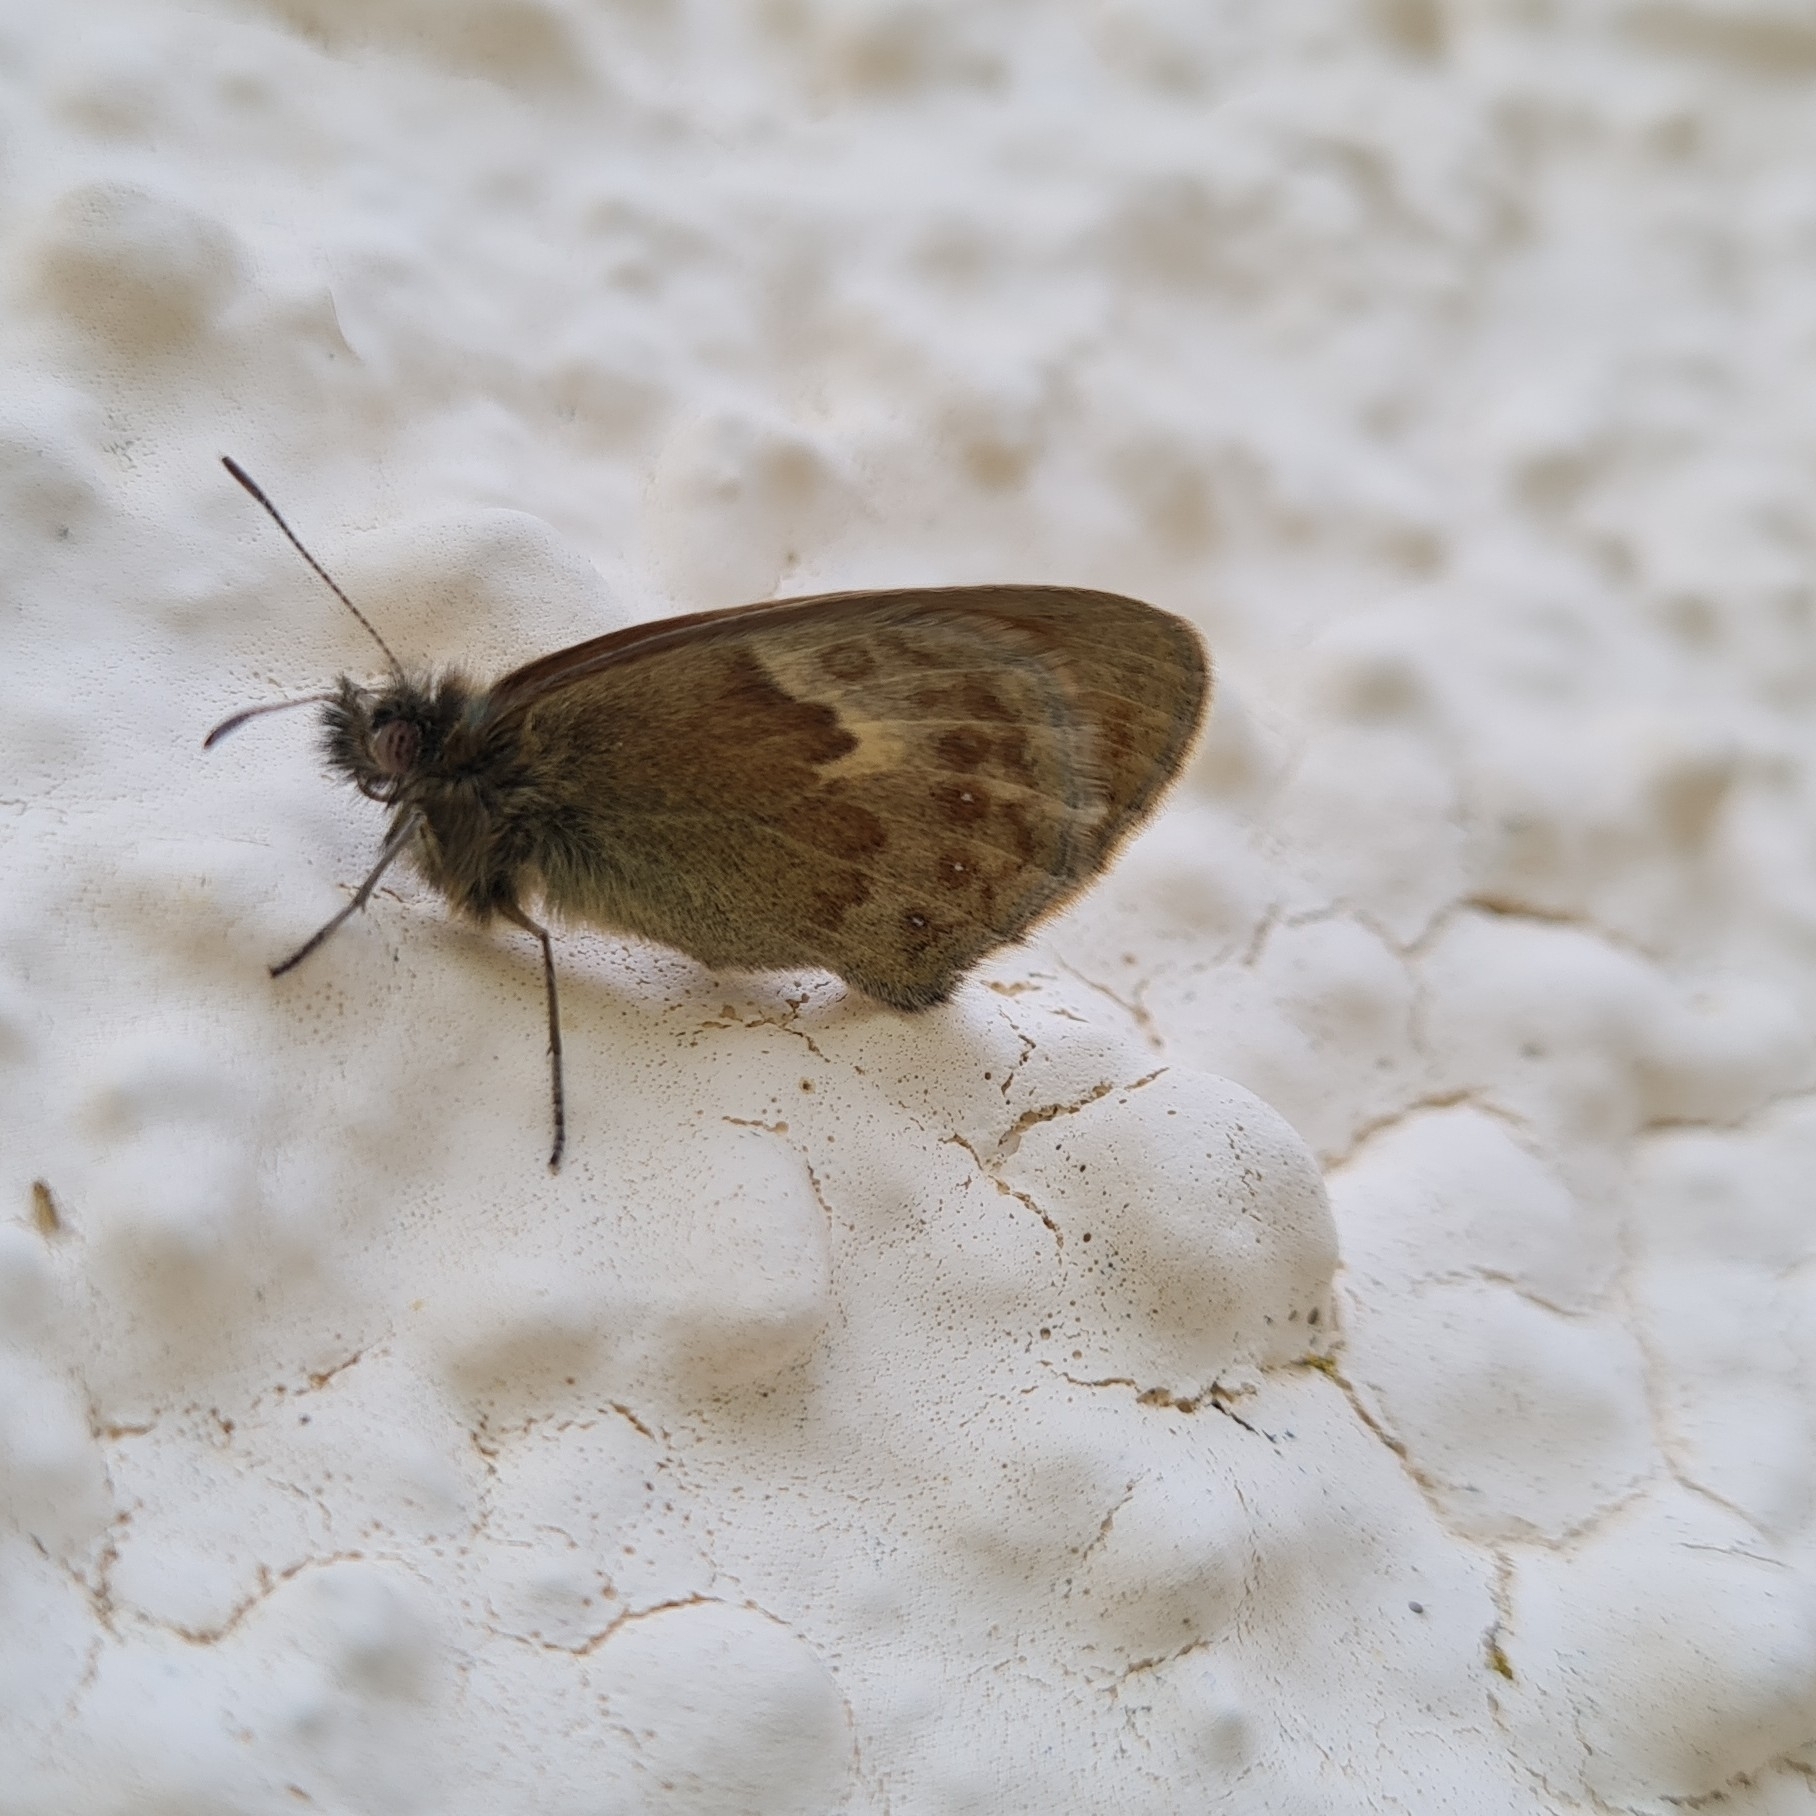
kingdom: Animalia
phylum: Arthropoda
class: Insecta
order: Lepidoptera
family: Nymphalidae
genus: Coenonympha
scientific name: Coenonympha pamphilus
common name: Small heath
